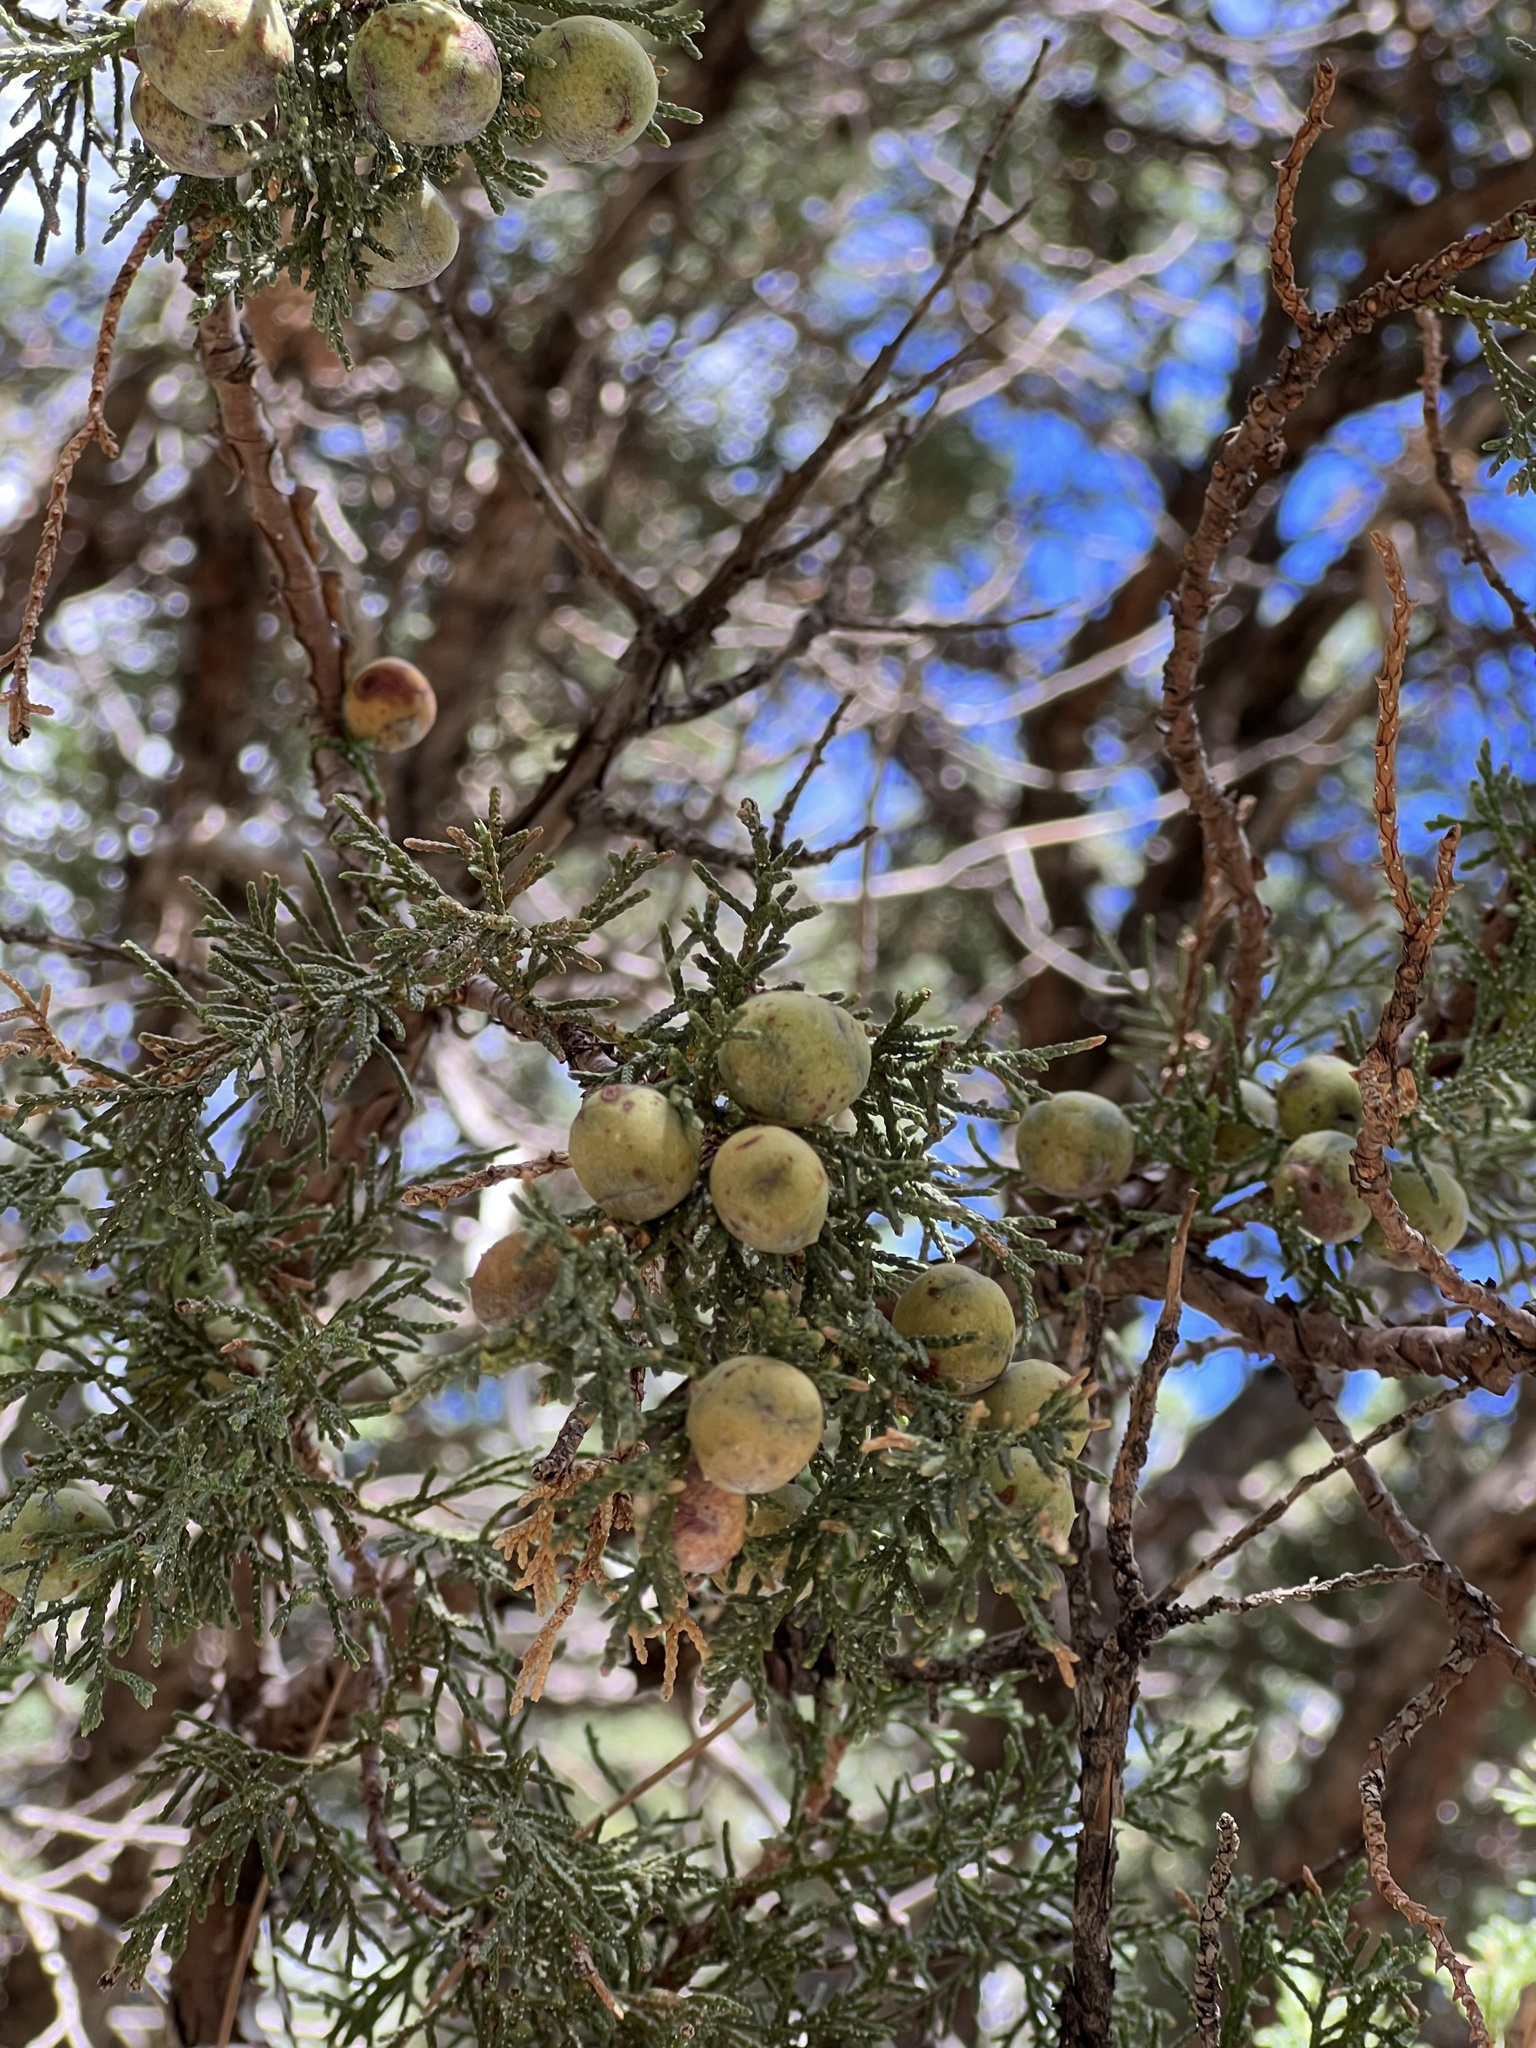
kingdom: Plantae
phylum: Tracheophyta
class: Pinopsida
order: Pinales
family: Cupressaceae
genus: Juniperus
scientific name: Juniperus deppeana
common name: Alligator juniper
